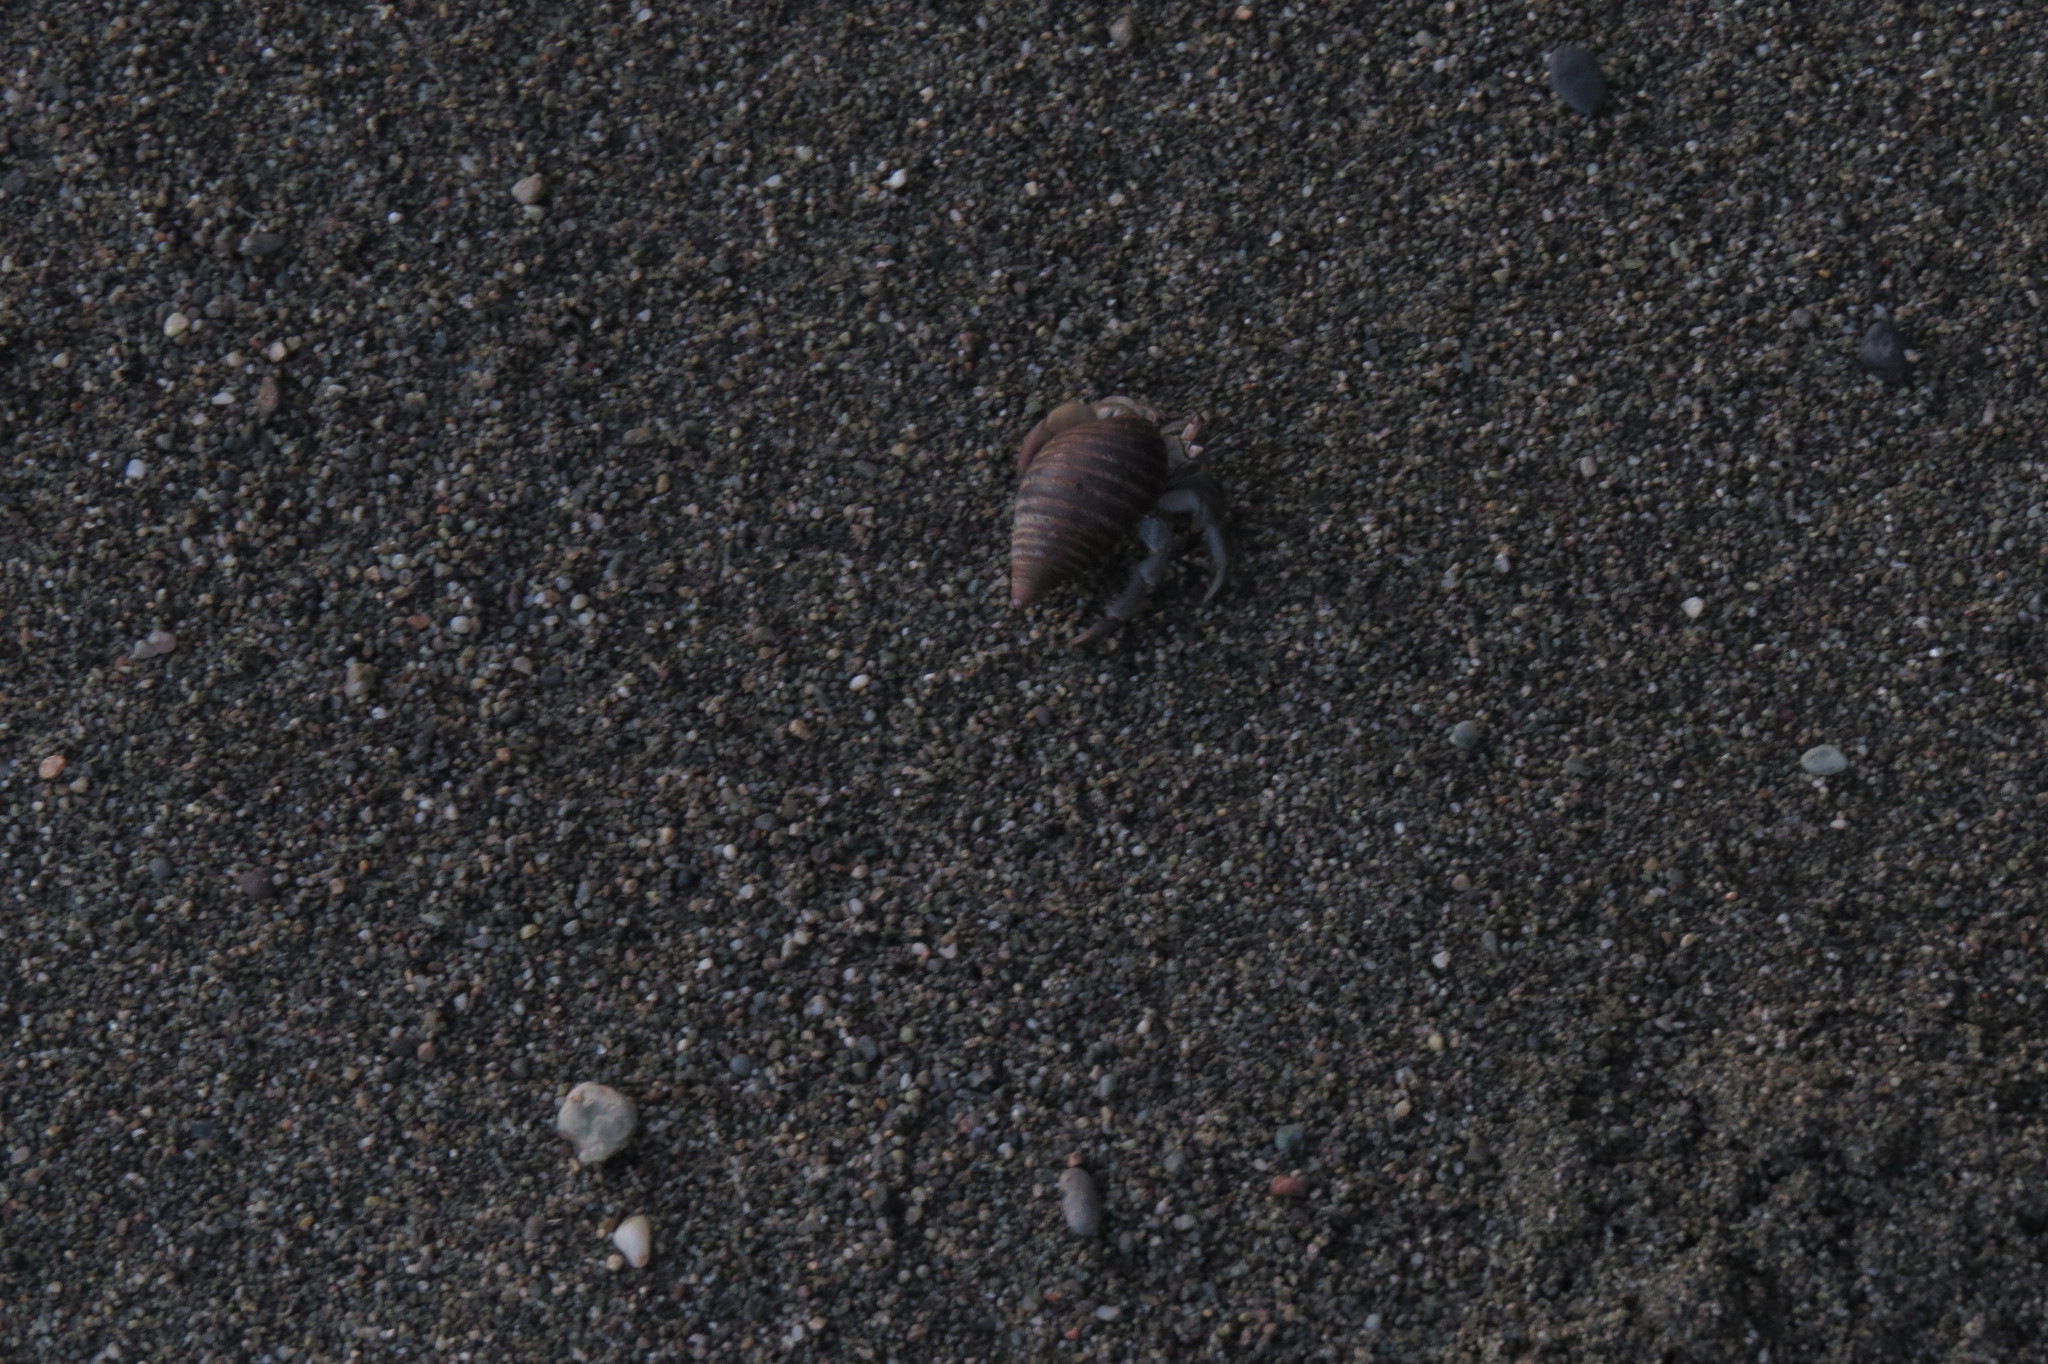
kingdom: Animalia
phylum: Arthropoda
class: Malacostraca
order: Decapoda
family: Coenobitidae
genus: Coenobita
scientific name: Coenobita compressus
